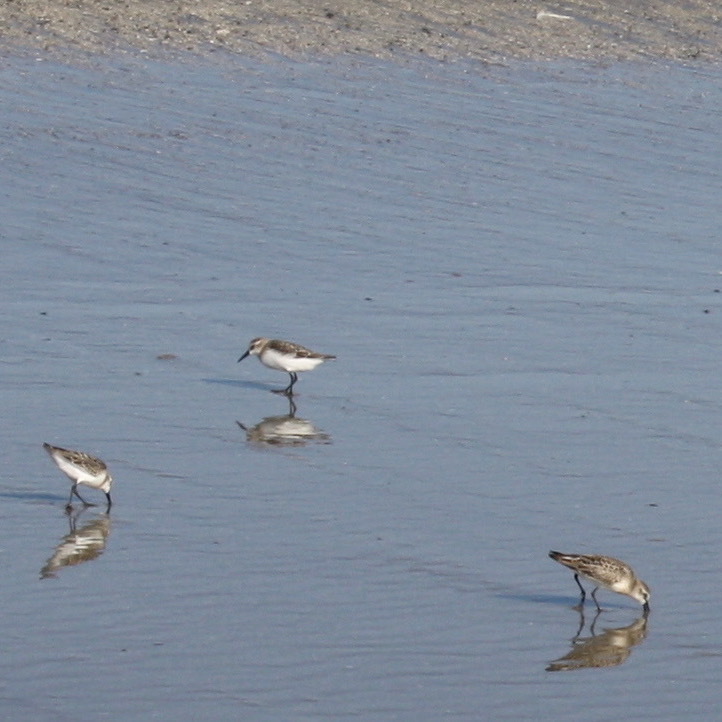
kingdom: Animalia
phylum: Chordata
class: Aves
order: Charadriiformes
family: Scolopacidae
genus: Calidris
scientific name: Calidris alba
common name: Sanderling
